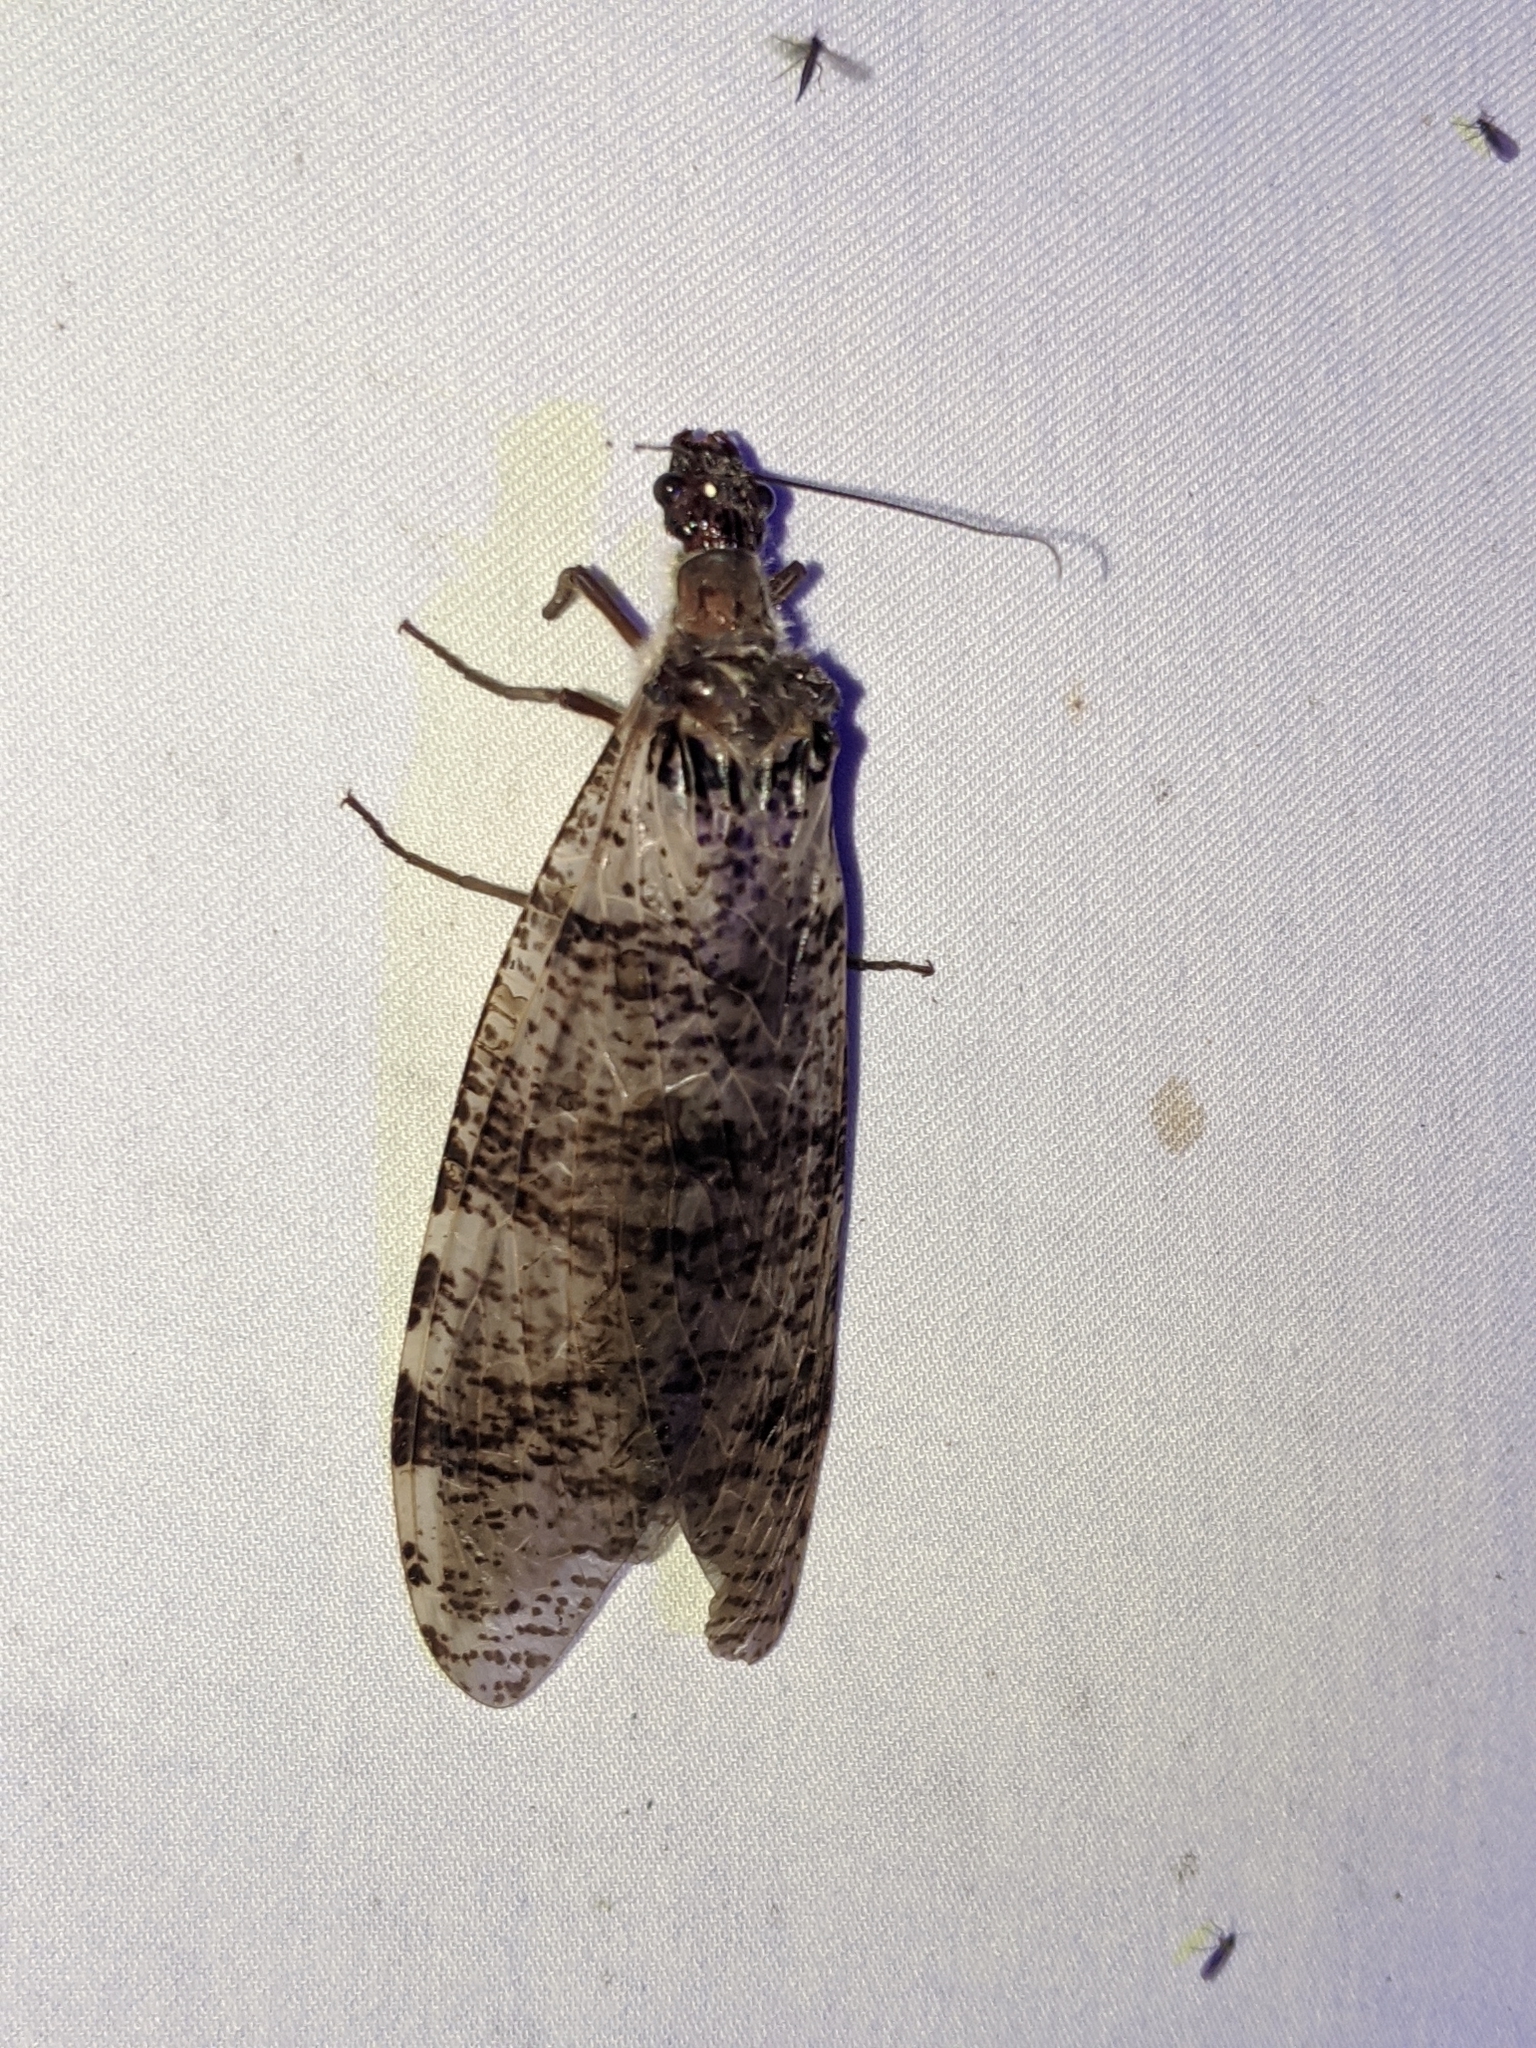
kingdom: Animalia
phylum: Arthropoda
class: Insecta
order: Megaloptera
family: Corydalidae
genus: Dysmicohermes
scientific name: Dysmicohermes disjunctus
